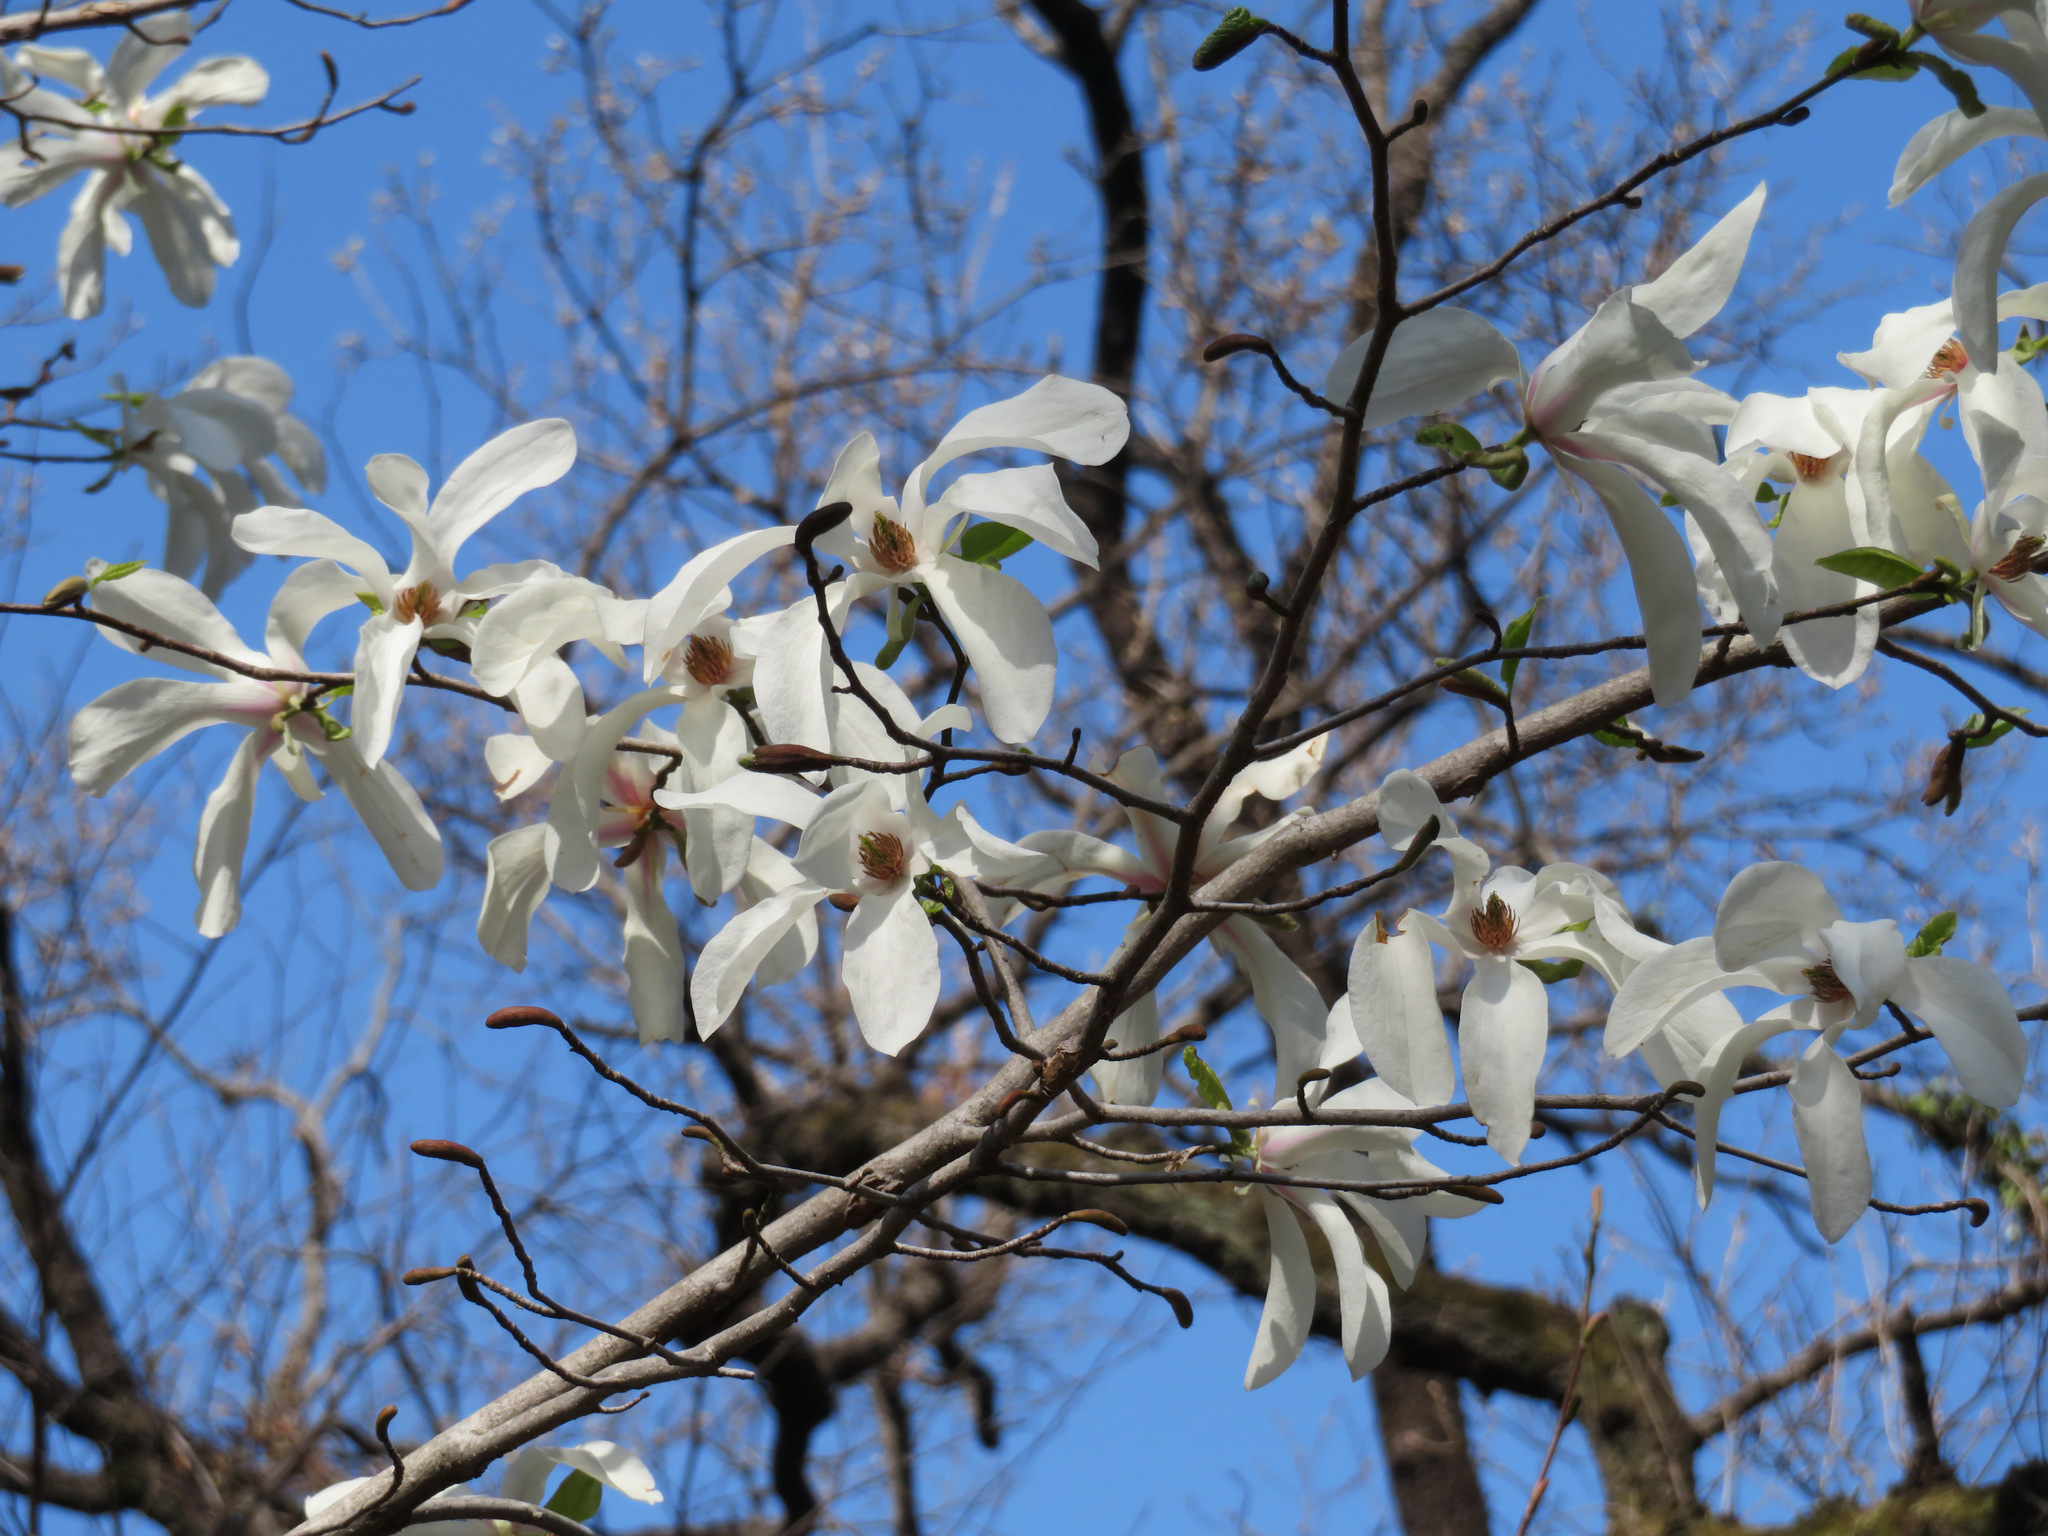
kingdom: Plantae
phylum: Tracheophyta
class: Magnoliopsida
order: Magnoliales
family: Magnoliaceae
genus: Magnolia
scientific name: Magnolia kobus
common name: Kobus magnolia
